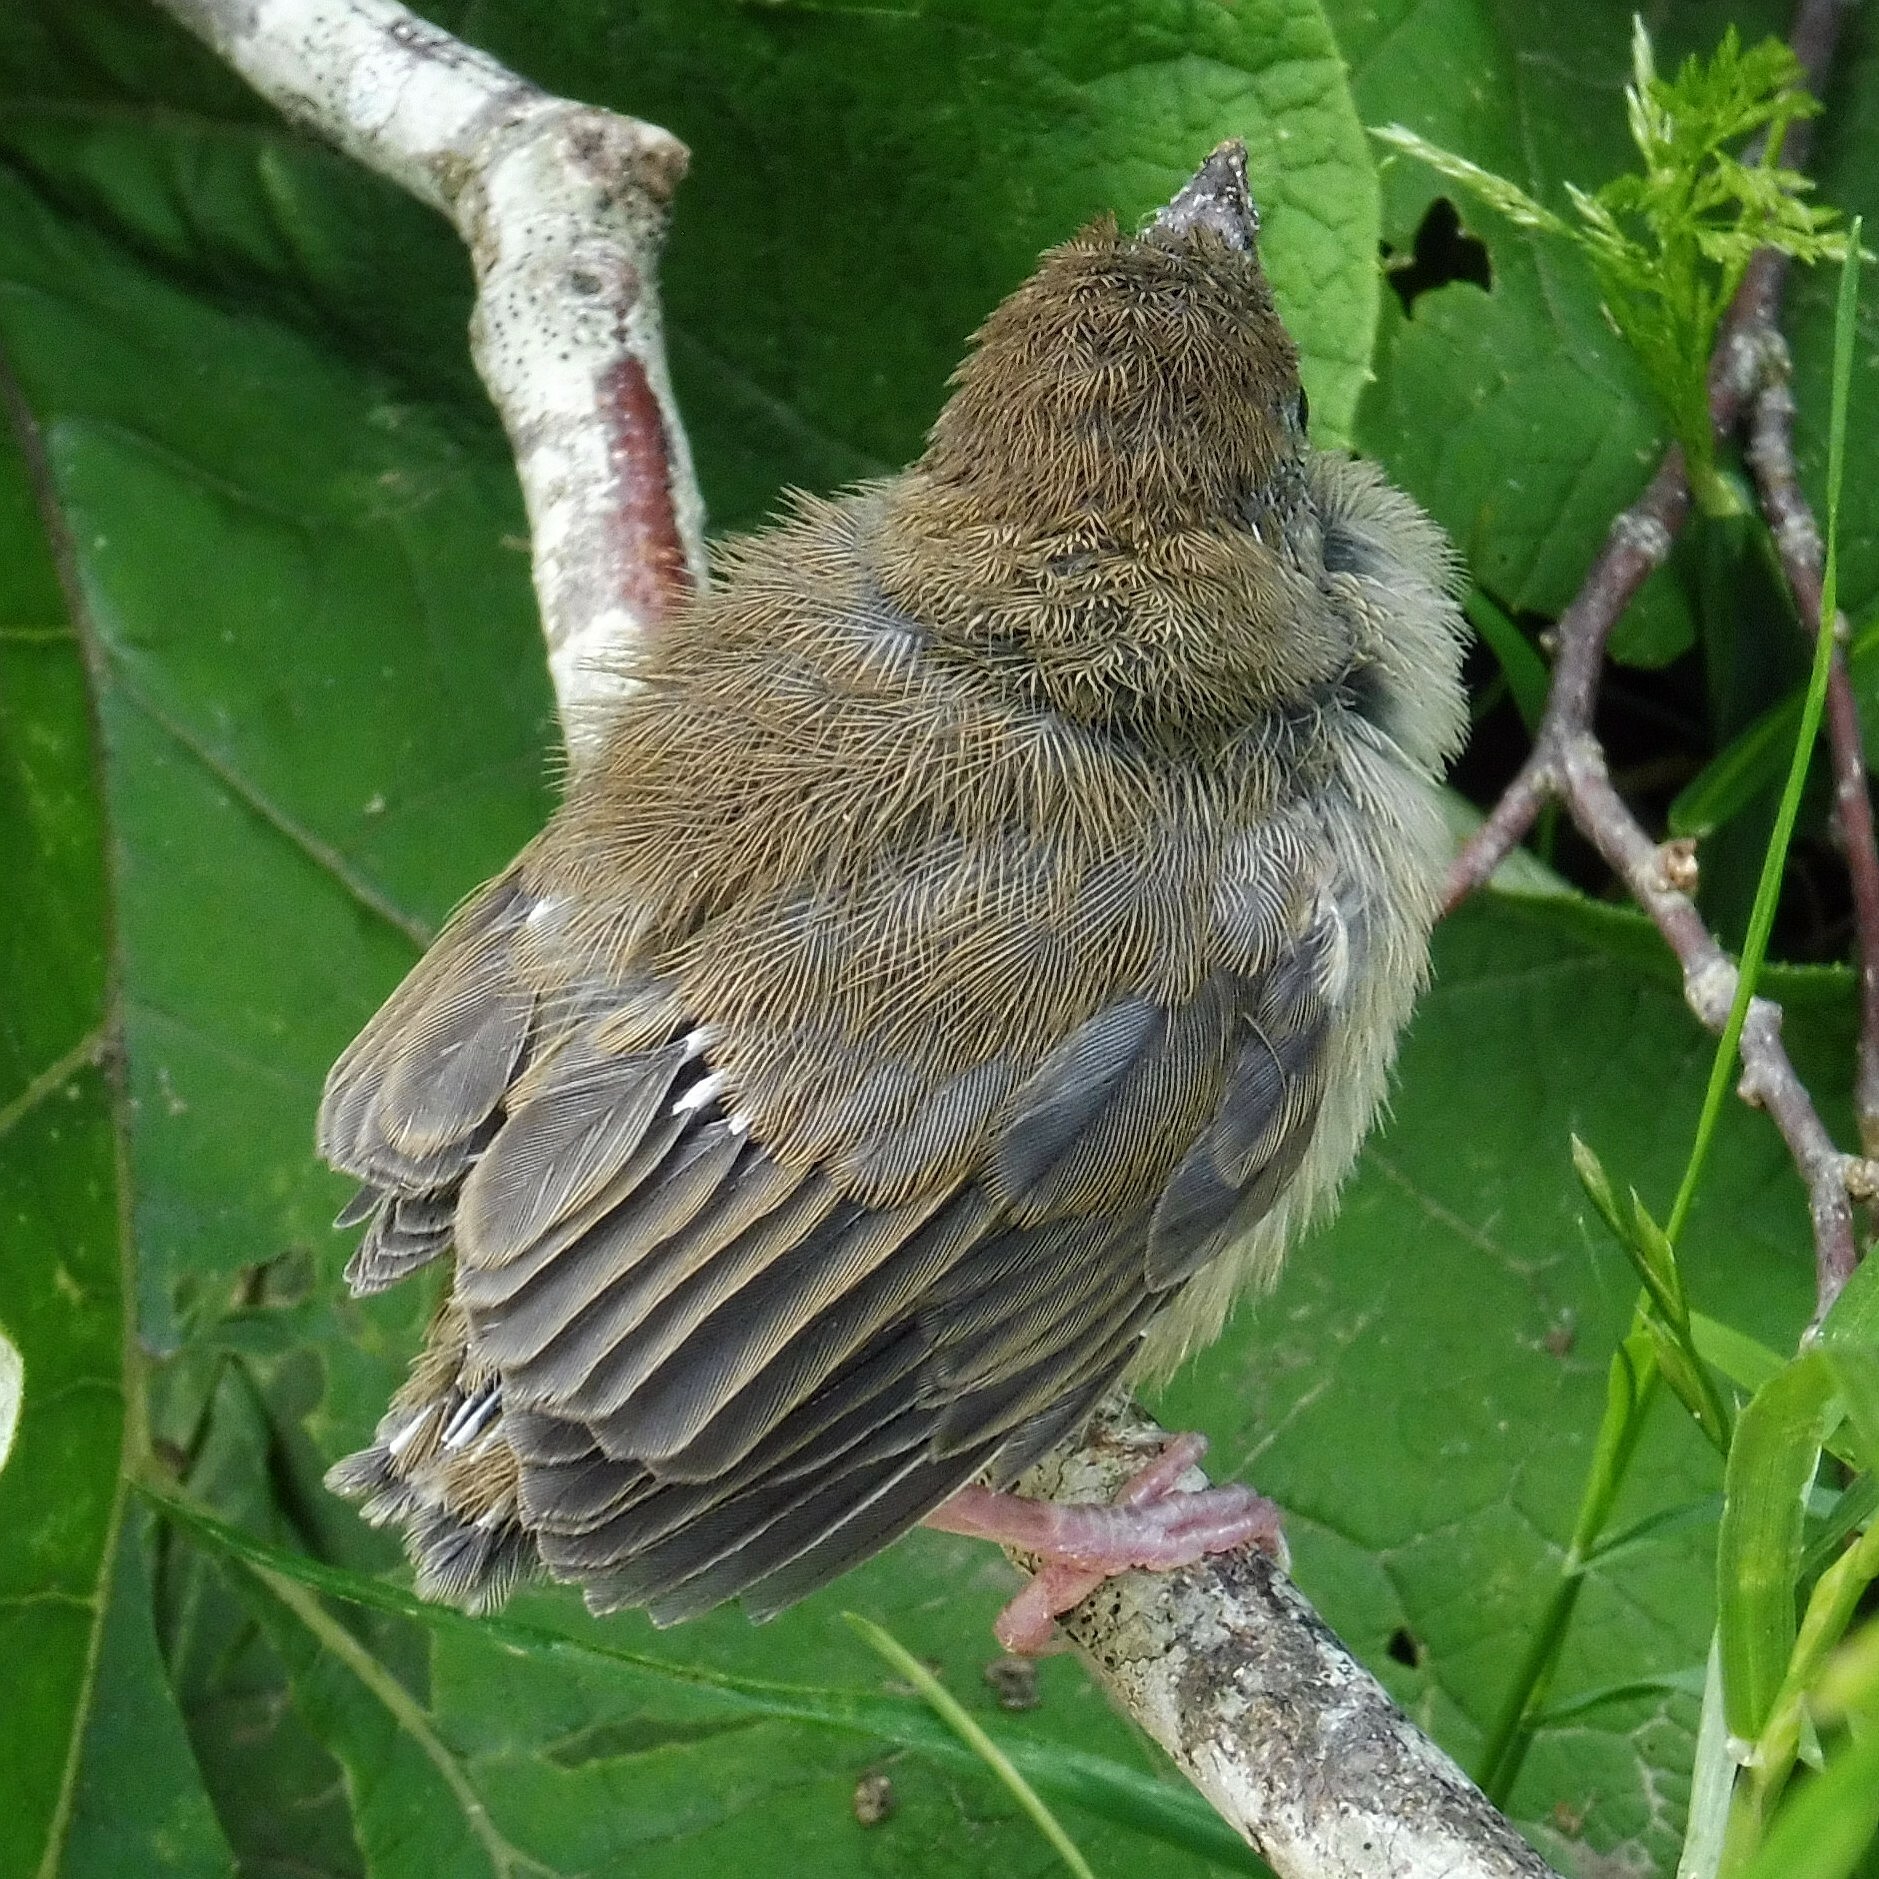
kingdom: Animalia
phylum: Chordata
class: Aves
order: Passeriformes
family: Sylviidae
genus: Sylvia
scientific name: Sylvia atricapilla
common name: Eurasian blackcap
